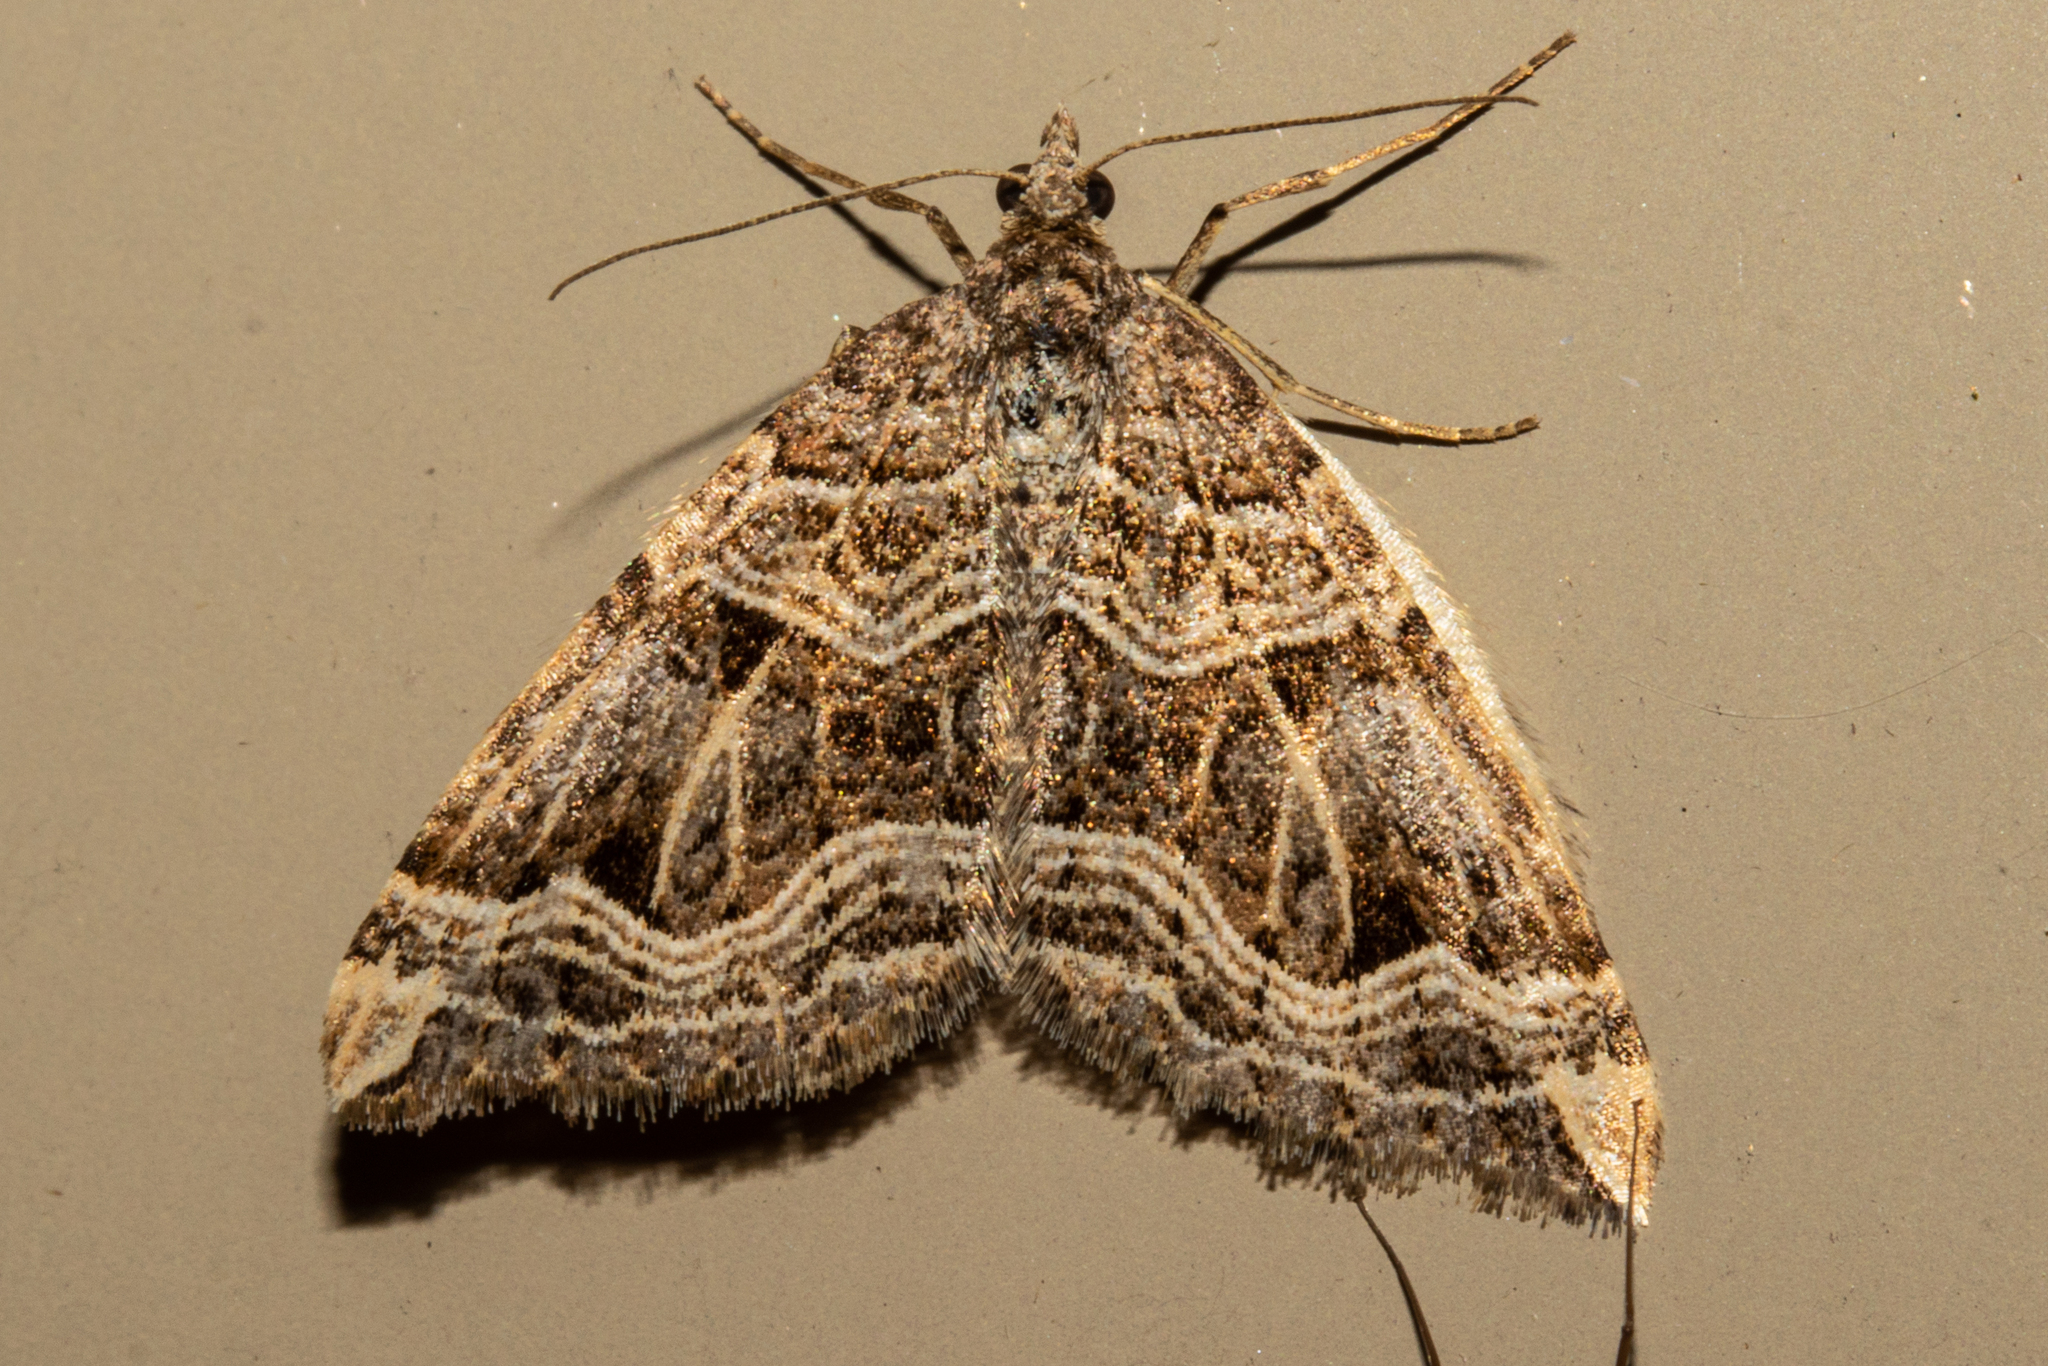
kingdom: Animalia
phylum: Arthropoda
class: Insecta
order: Lepidoptera
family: Geometridae
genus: Xanthorhoe
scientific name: Xanthorhoe semifissata
